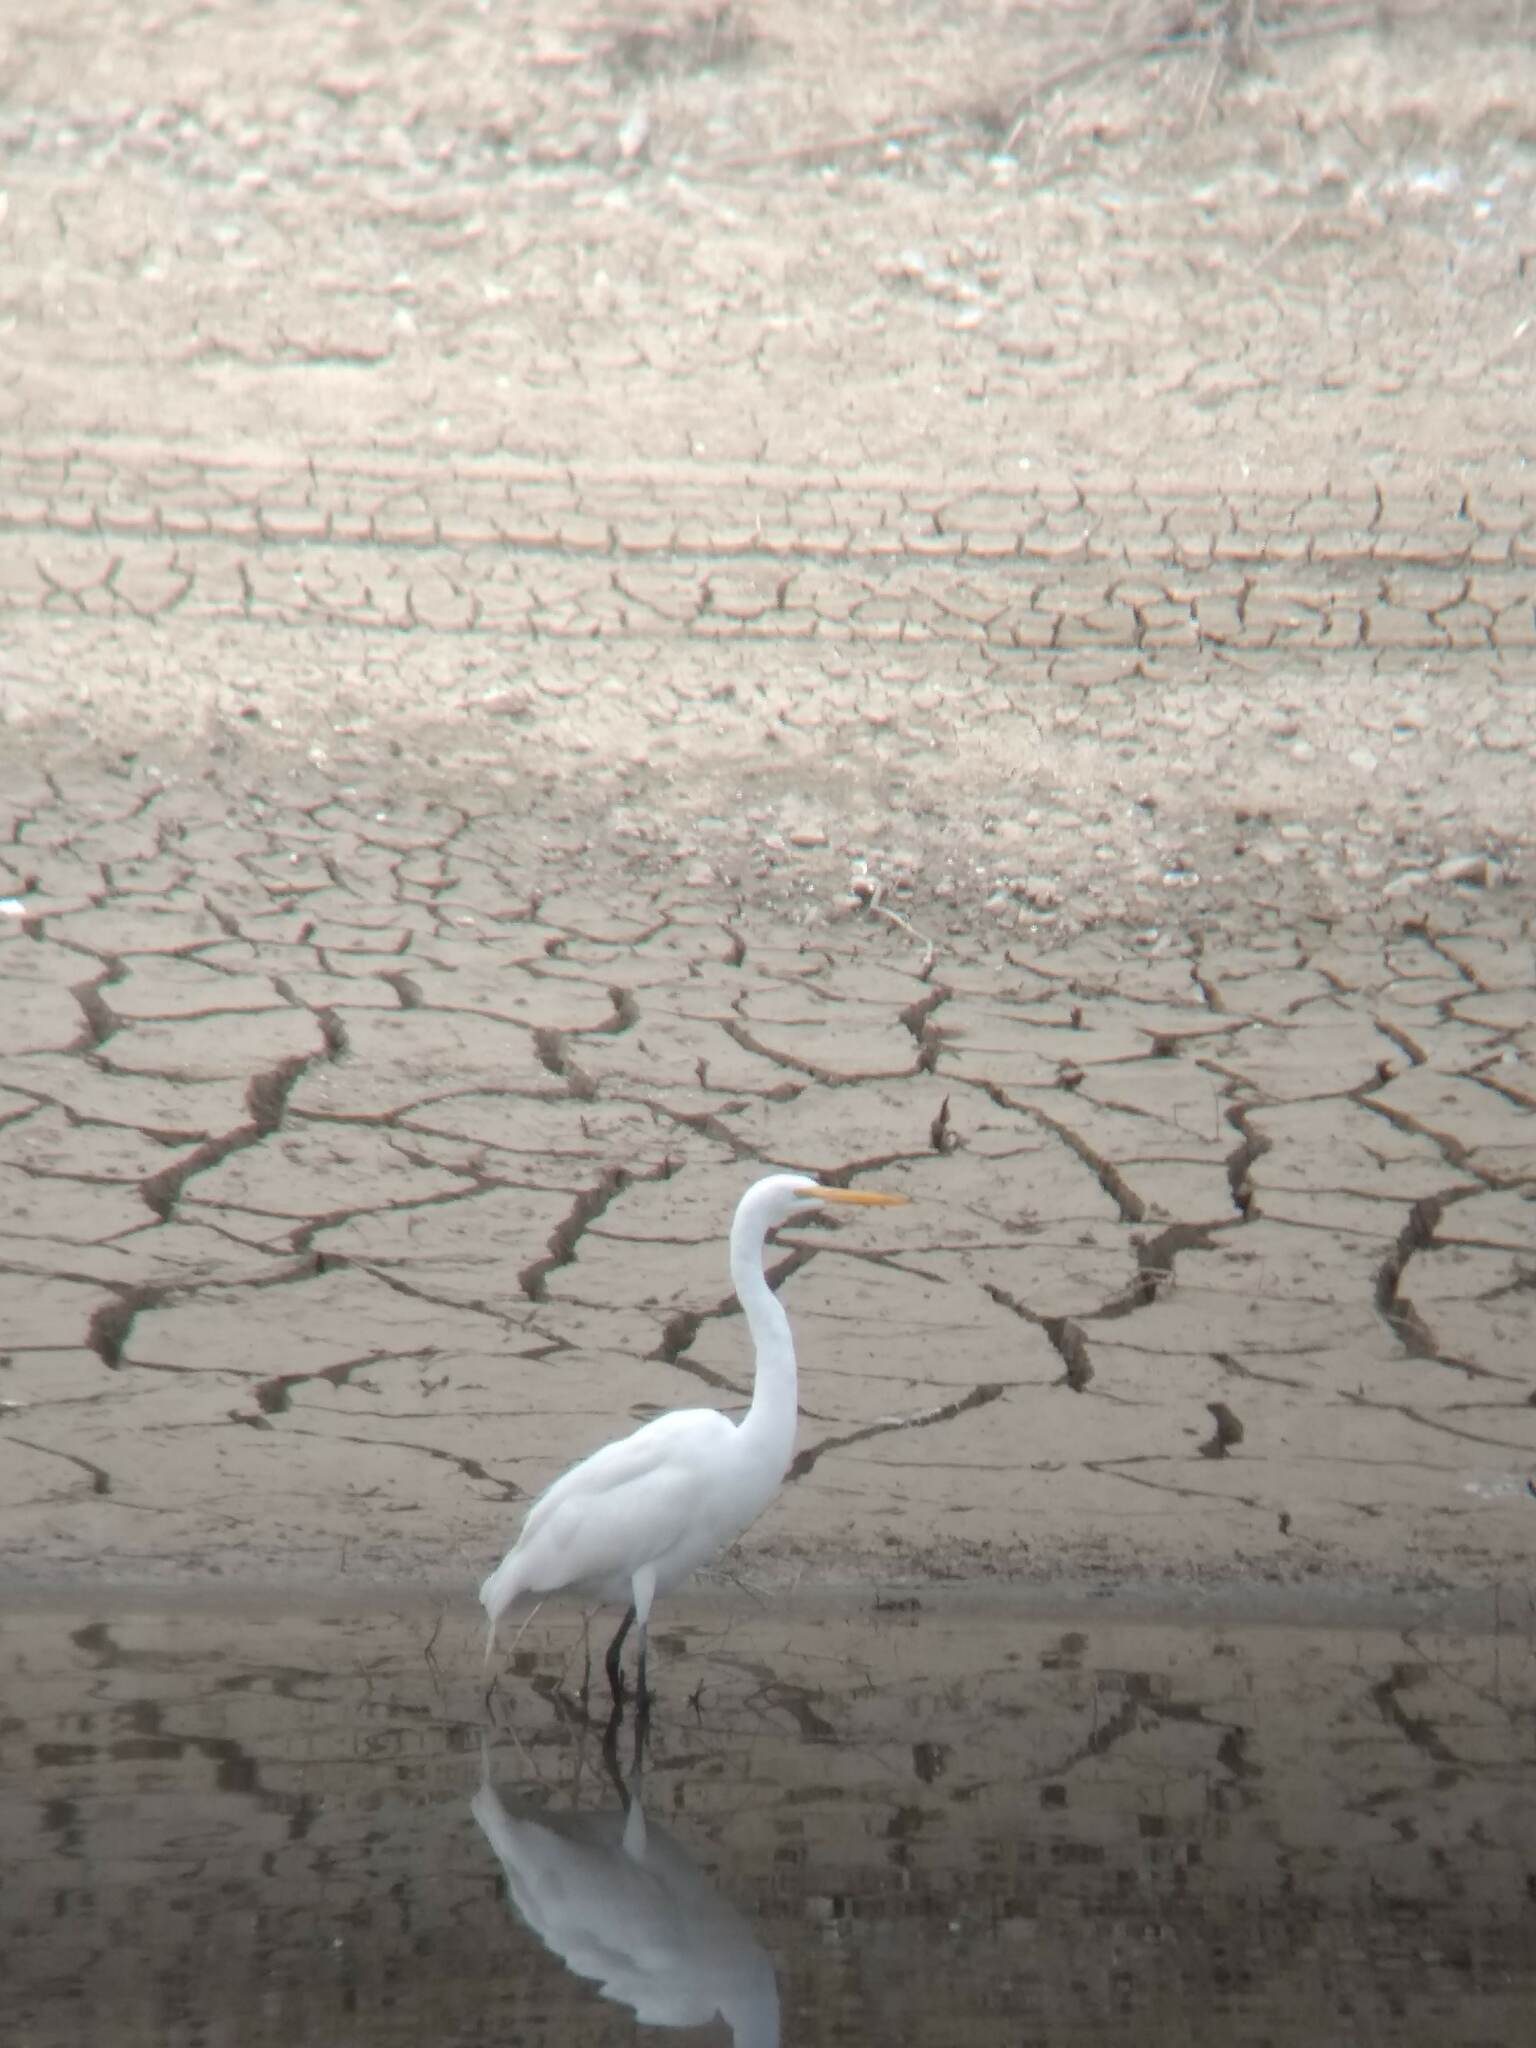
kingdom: Animalia
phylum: Chordata
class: Aves
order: Pelecaniformes
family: Ardeidae
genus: Ardea
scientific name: Ardea alba
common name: Great egret
